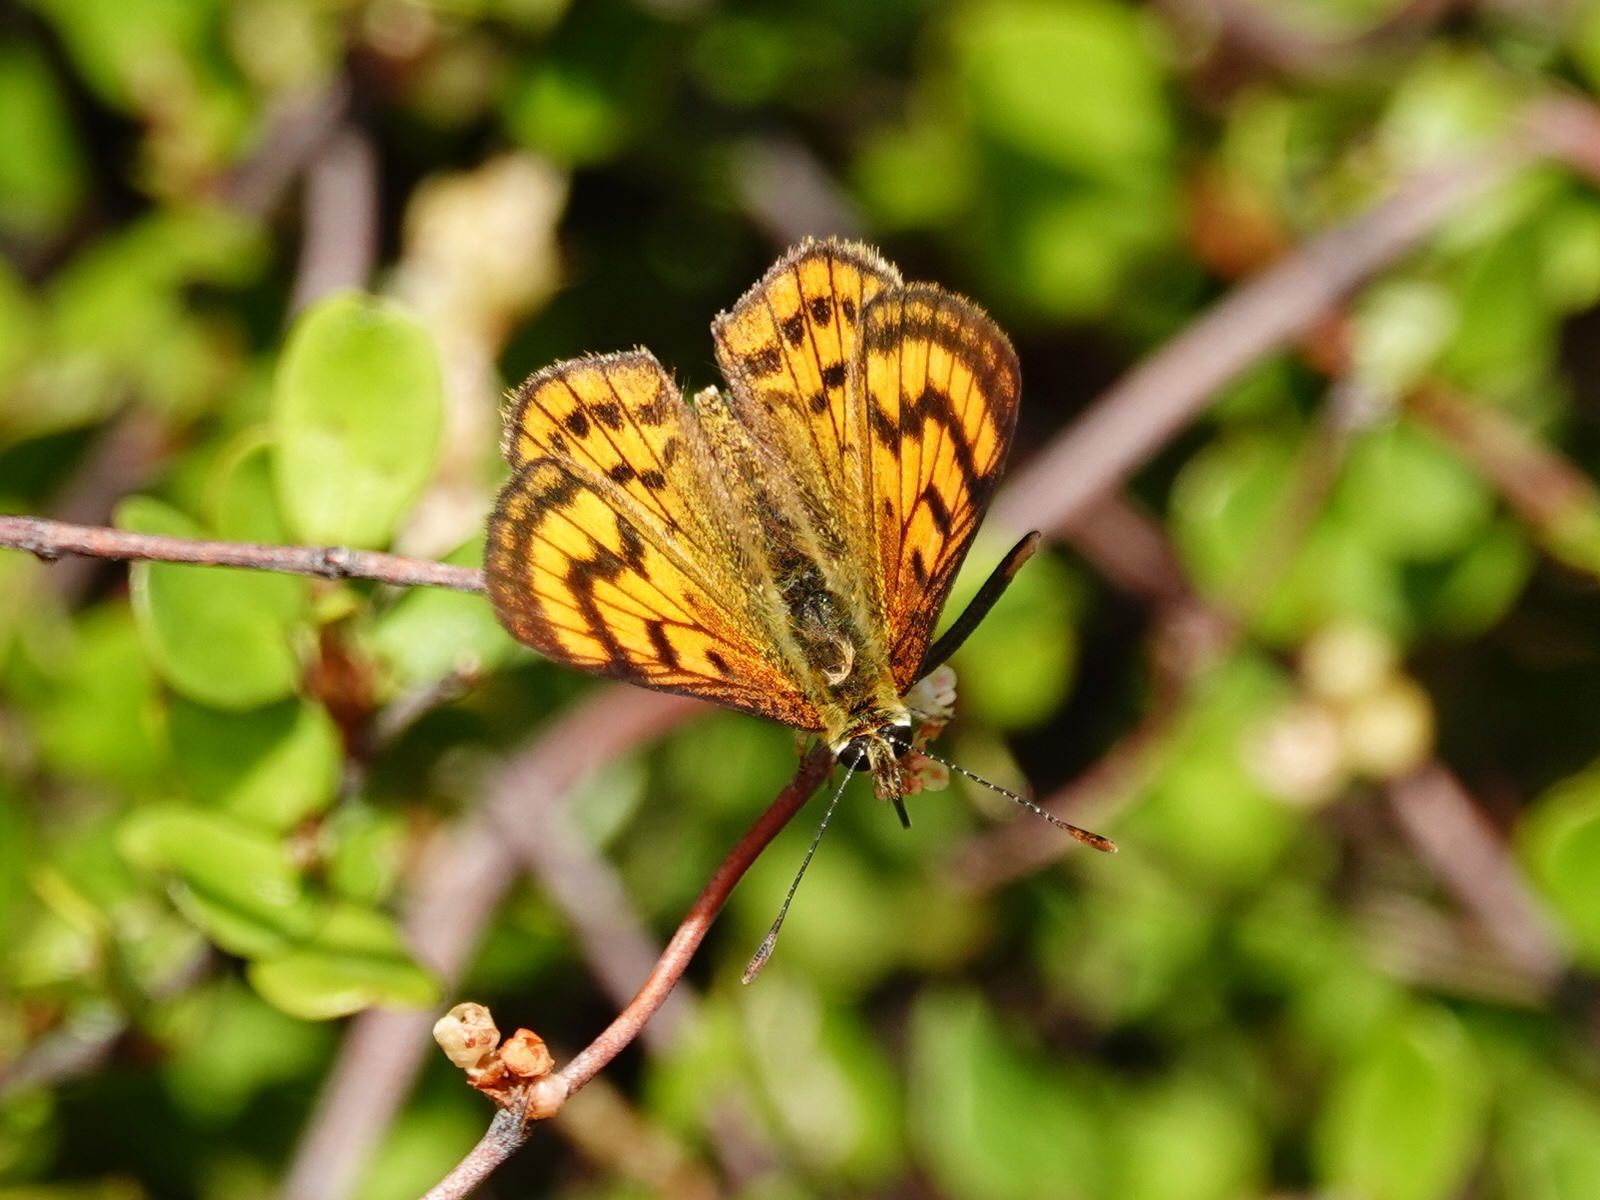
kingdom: Animalia
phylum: Arthropoda
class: Insecta
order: Lepidoptera
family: Lycaenidae
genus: Lycaena
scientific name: Lycaena salustius
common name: North island coastal copper
